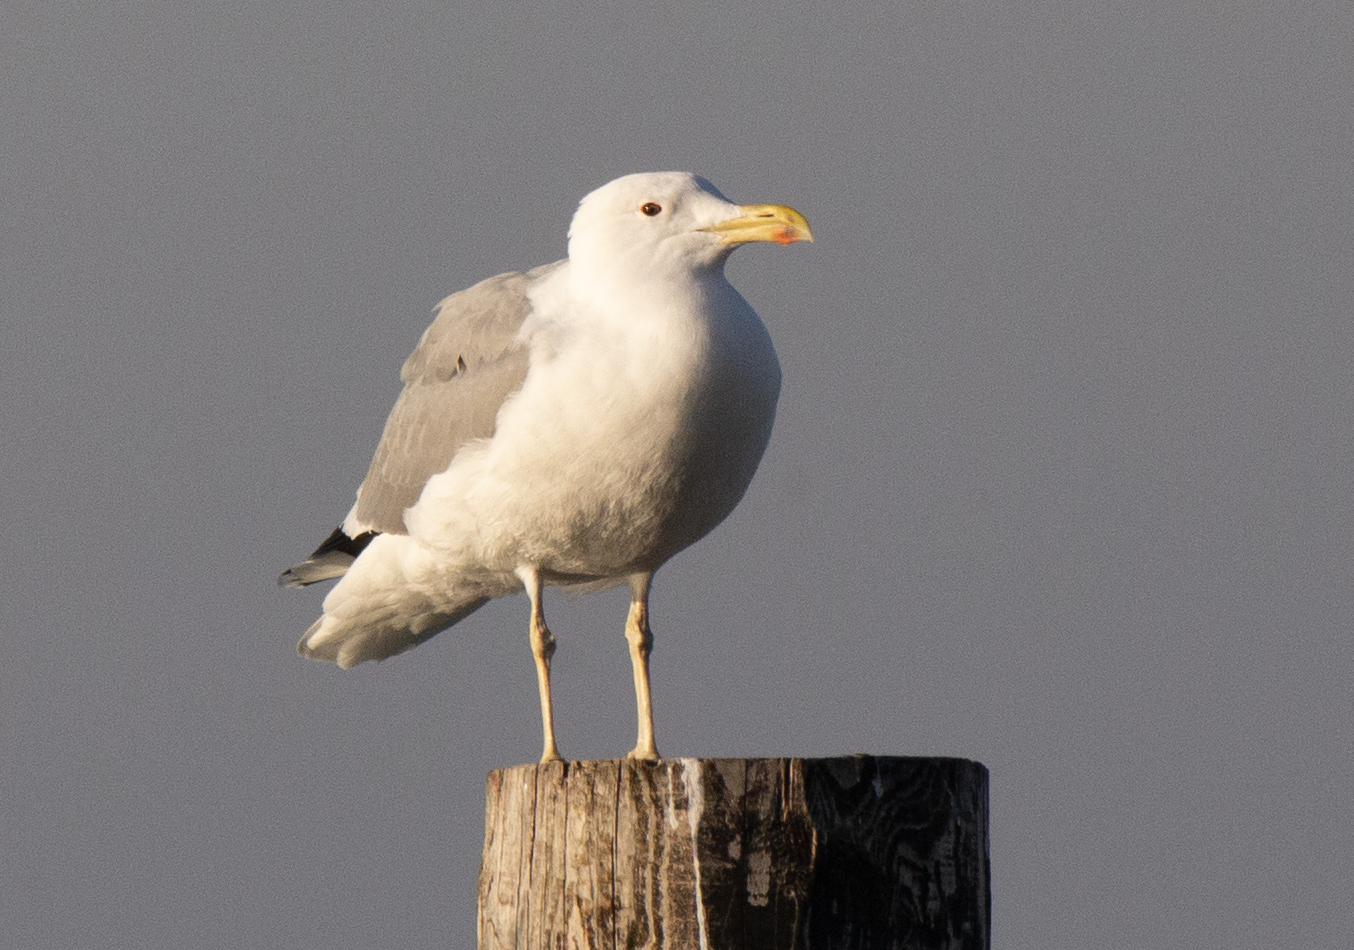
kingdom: Animalia
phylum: Chordata
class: Aves
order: Charadriiformes
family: Laridae
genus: Larus
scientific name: Larus cachinnans
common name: Caspian gull
